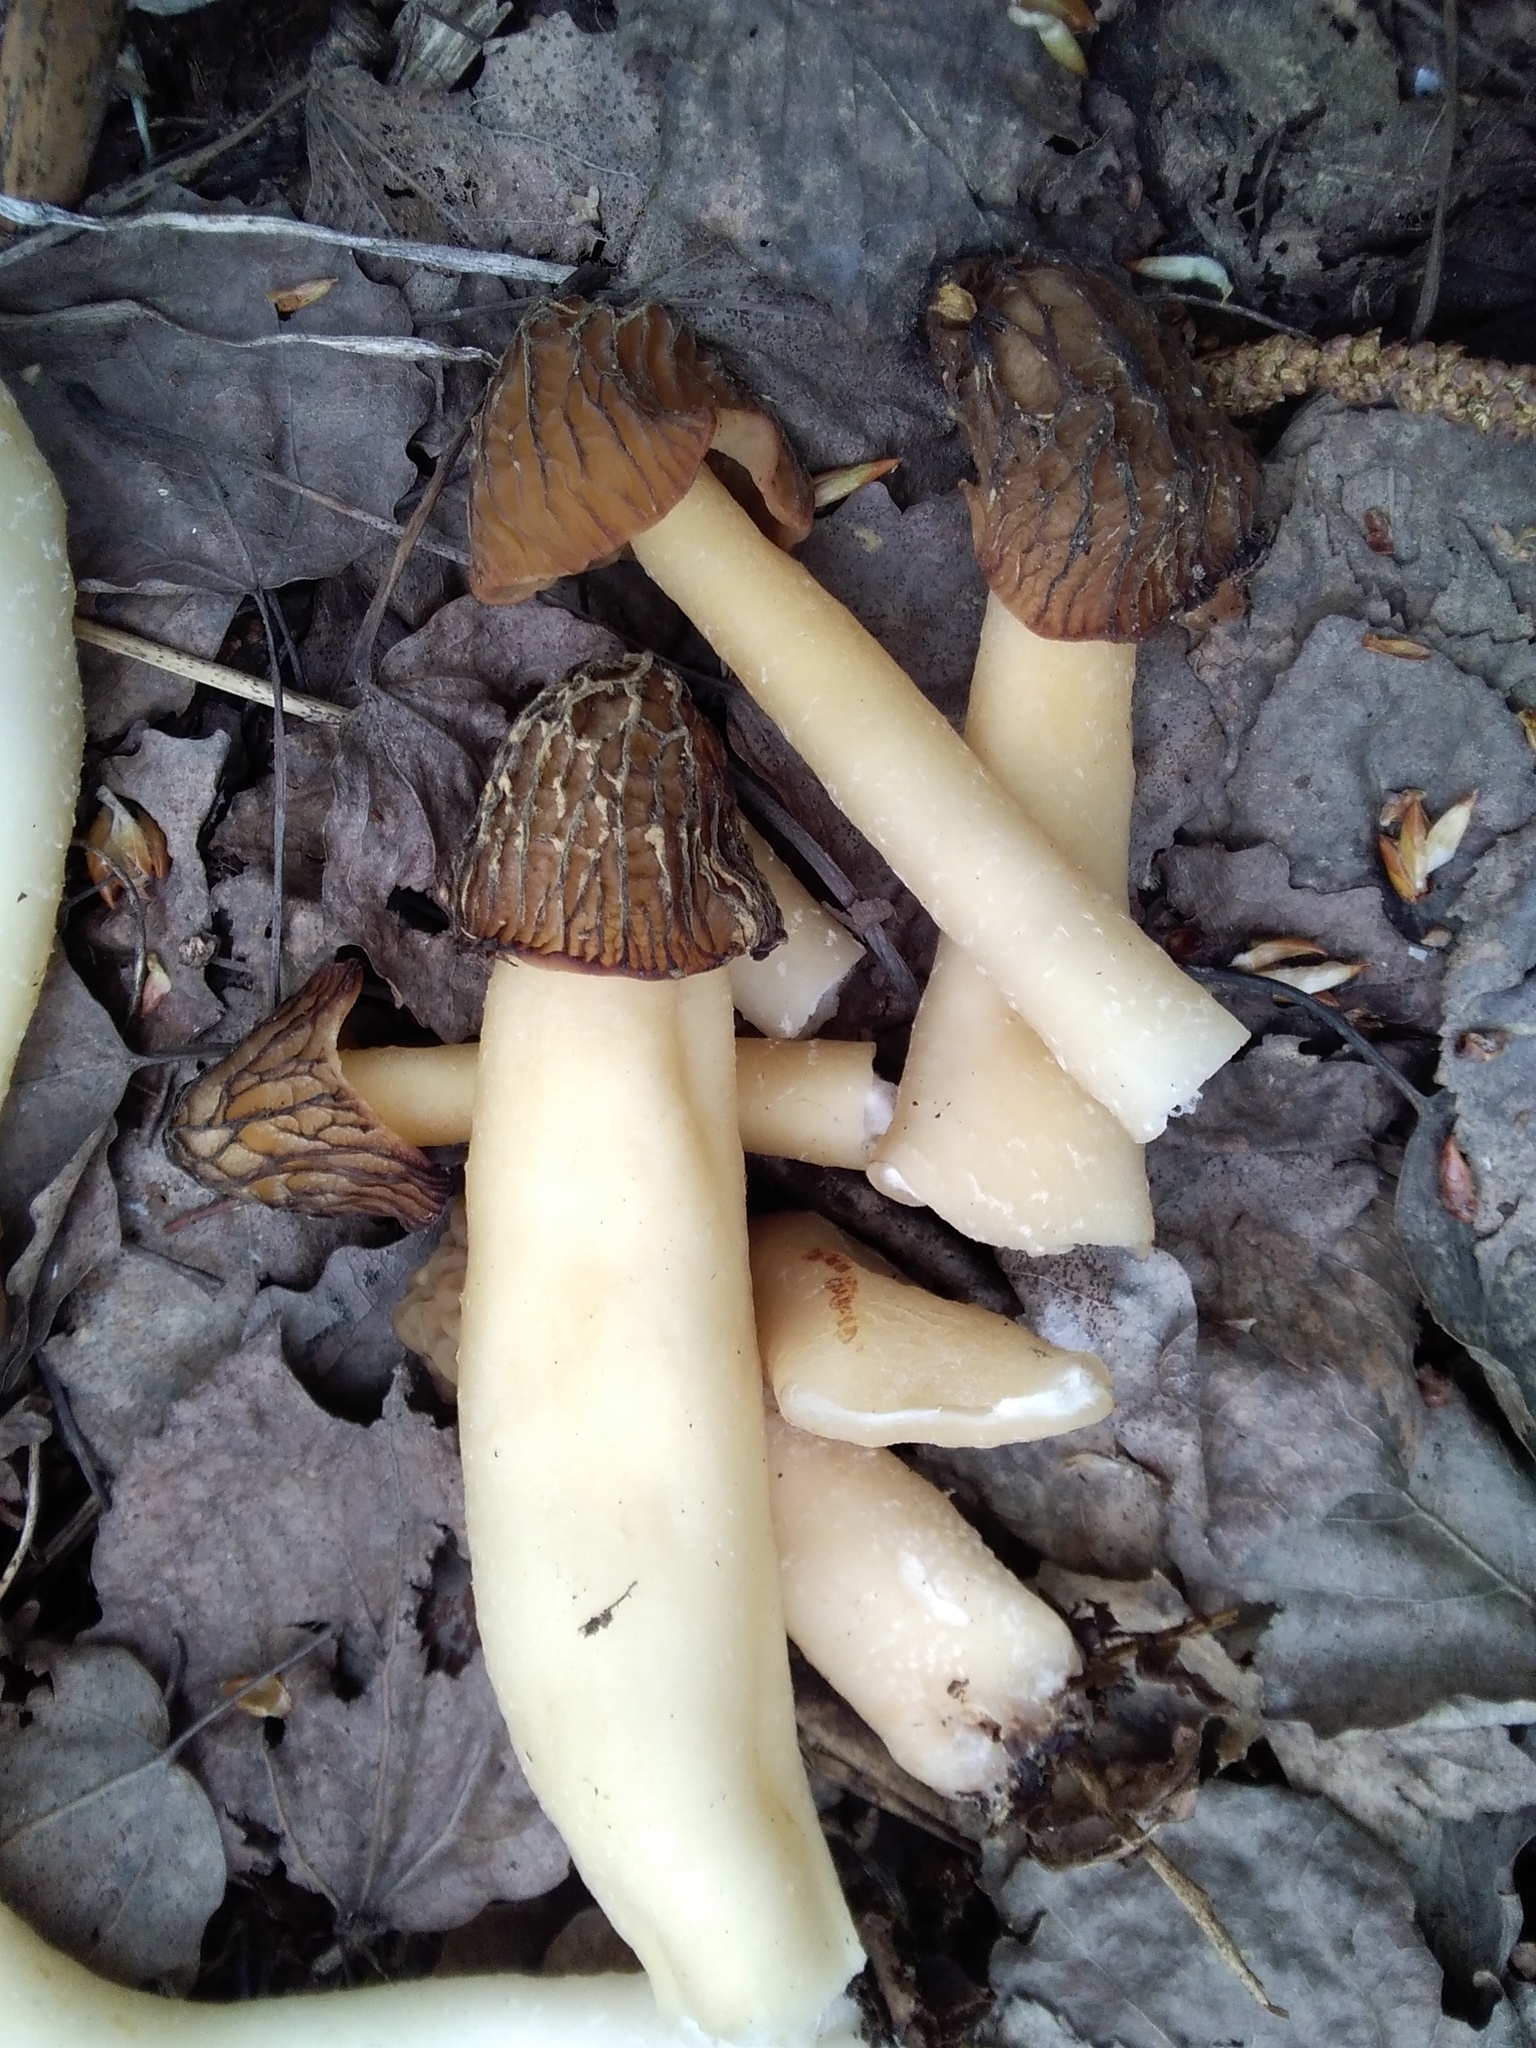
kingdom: Fungi
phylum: Ascomycota
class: Pezizomycetes
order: Pezizales
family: Morchellaceae
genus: Verpa
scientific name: Verpa bohemica
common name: Wrinkled thimble morel
